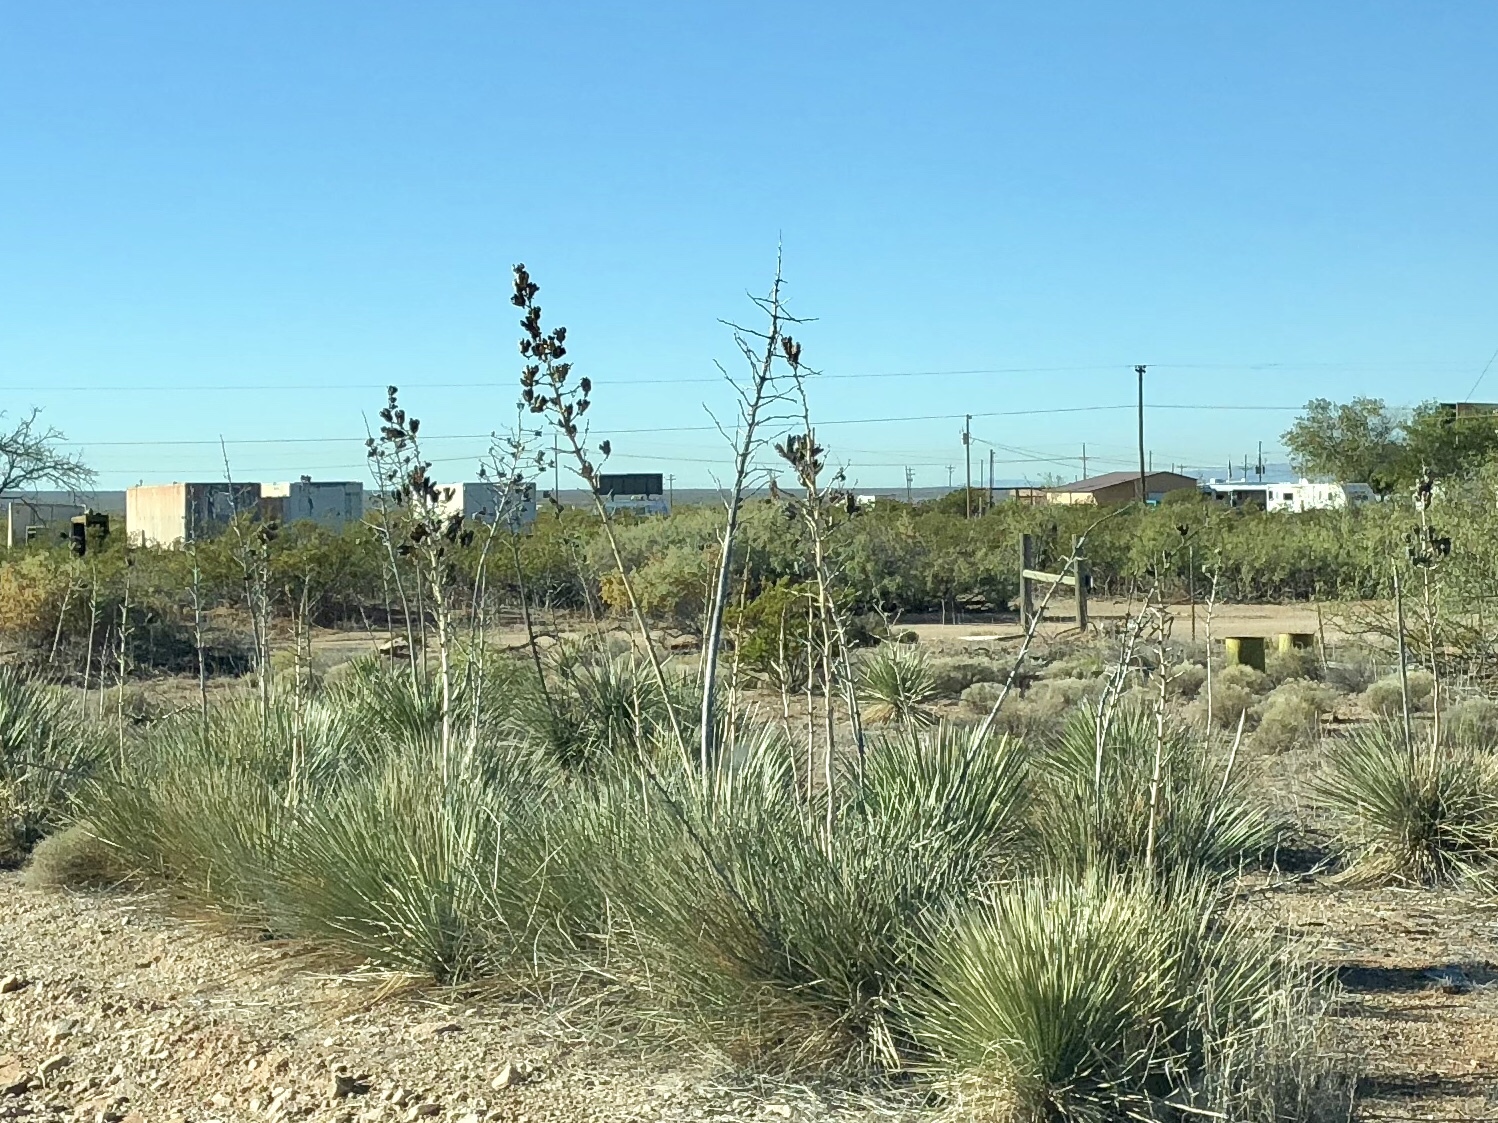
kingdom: Plantae
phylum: Tracheophyta
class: Liliopsida
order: Asparagales
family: Asparagaceae
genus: Yucca
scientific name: Yucca elata
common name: Palmella
